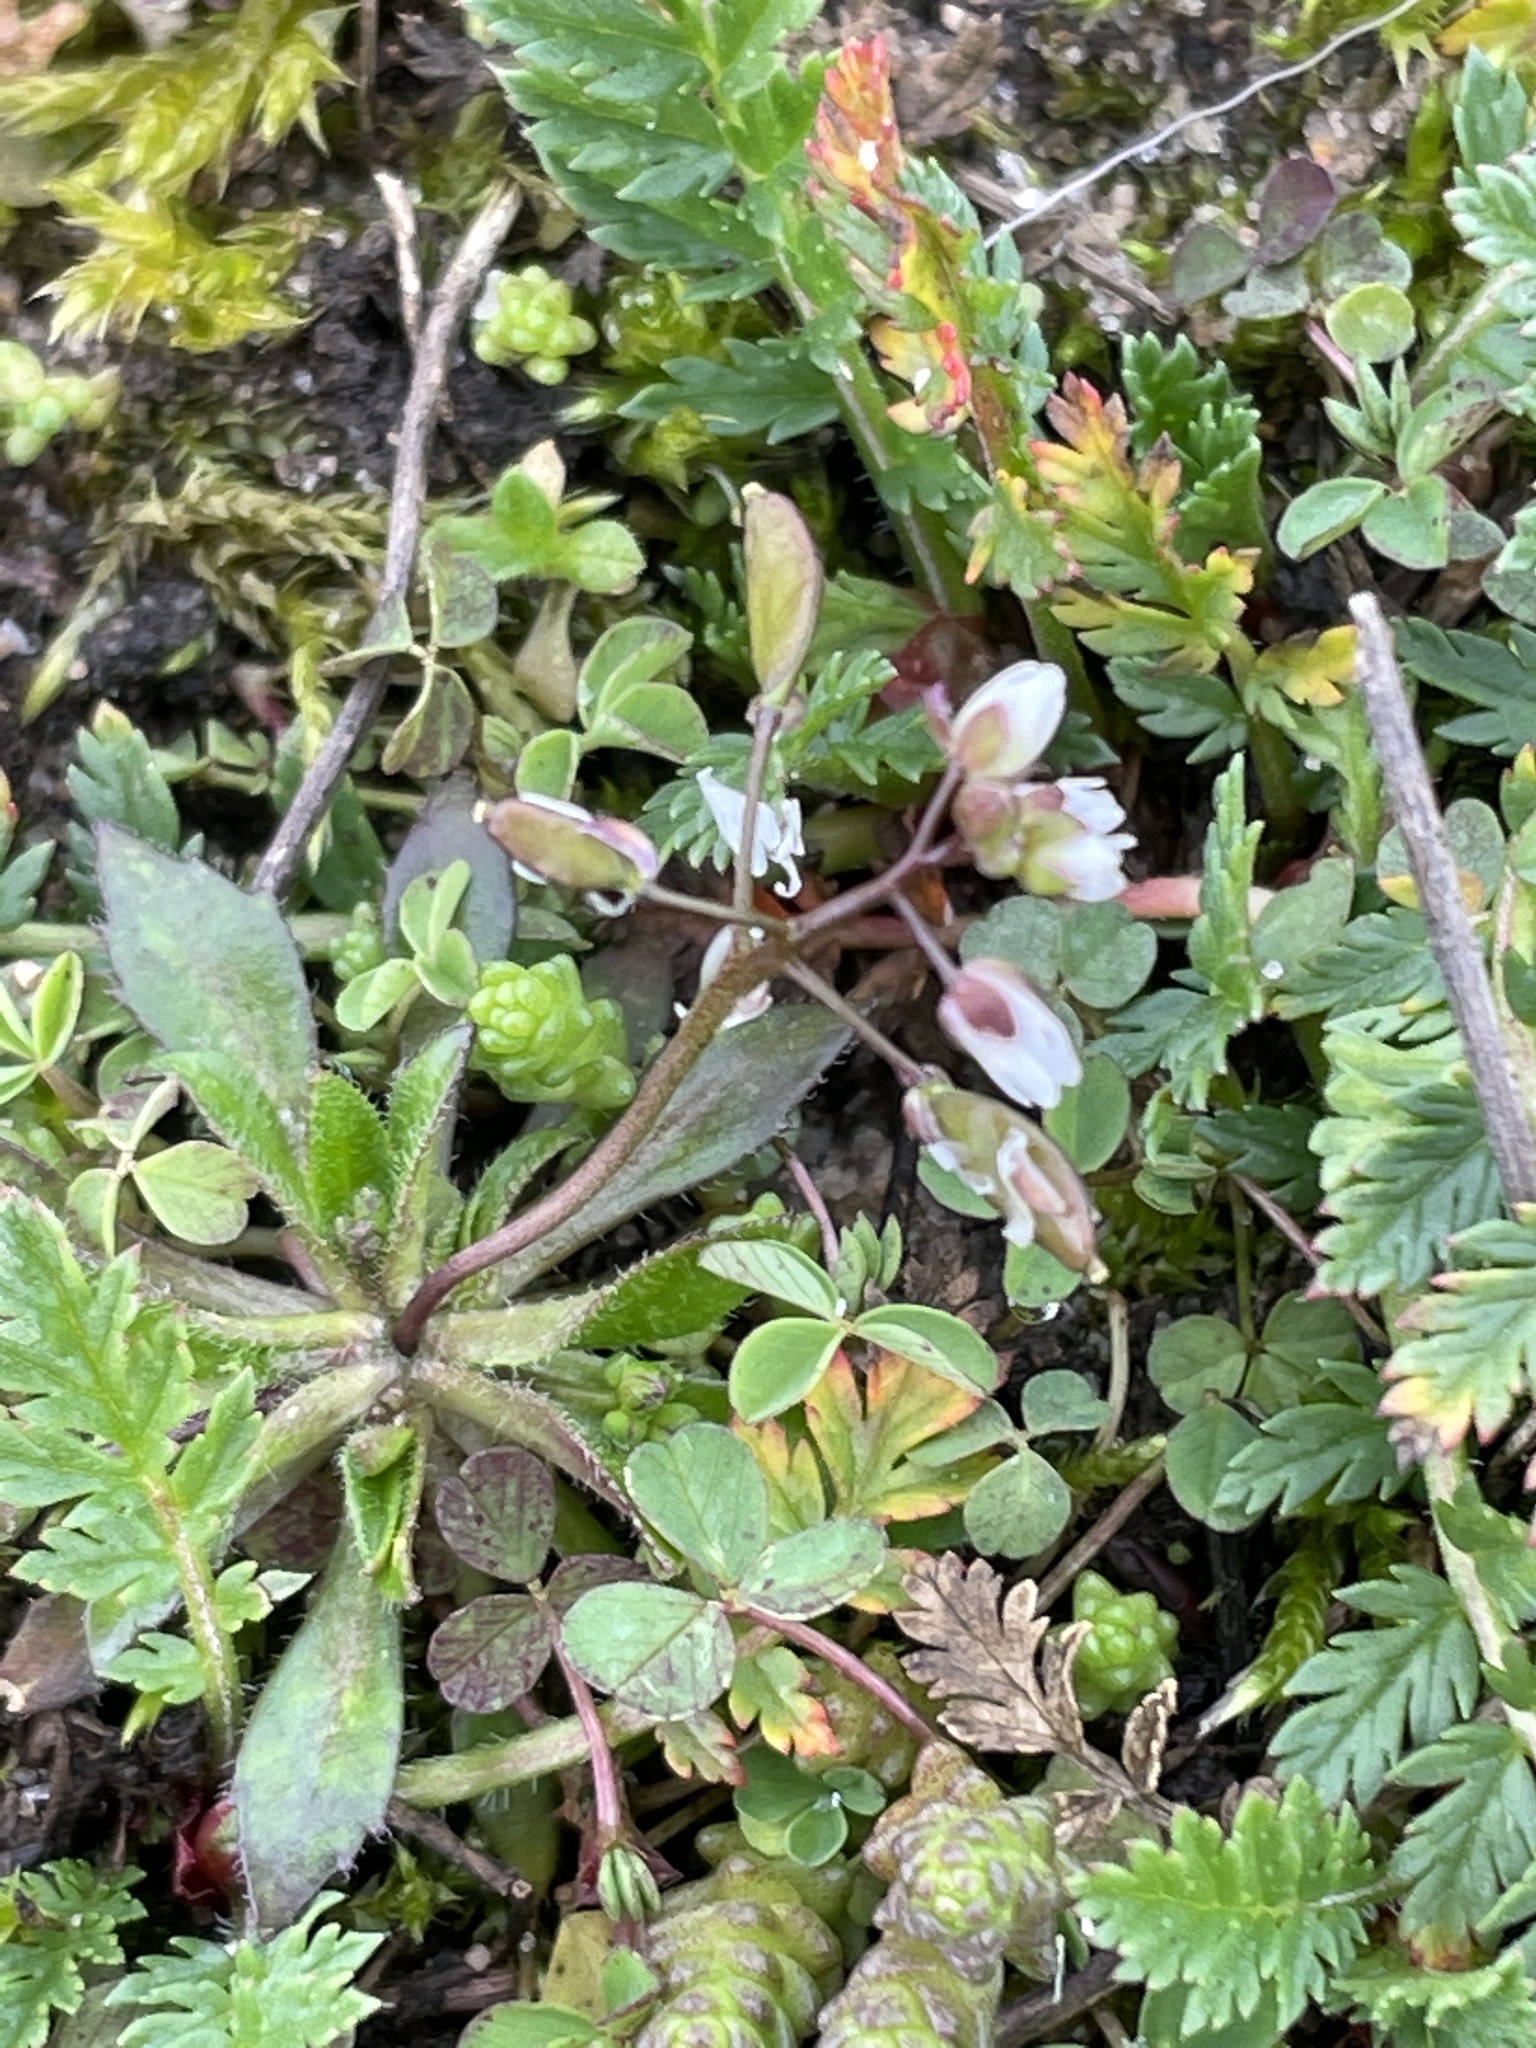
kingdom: Plantae
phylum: Tracheophyta
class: Magnoliopsida
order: Brassicales
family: Brassicaceae
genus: Draba
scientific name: Draba verna
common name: Spring draba
